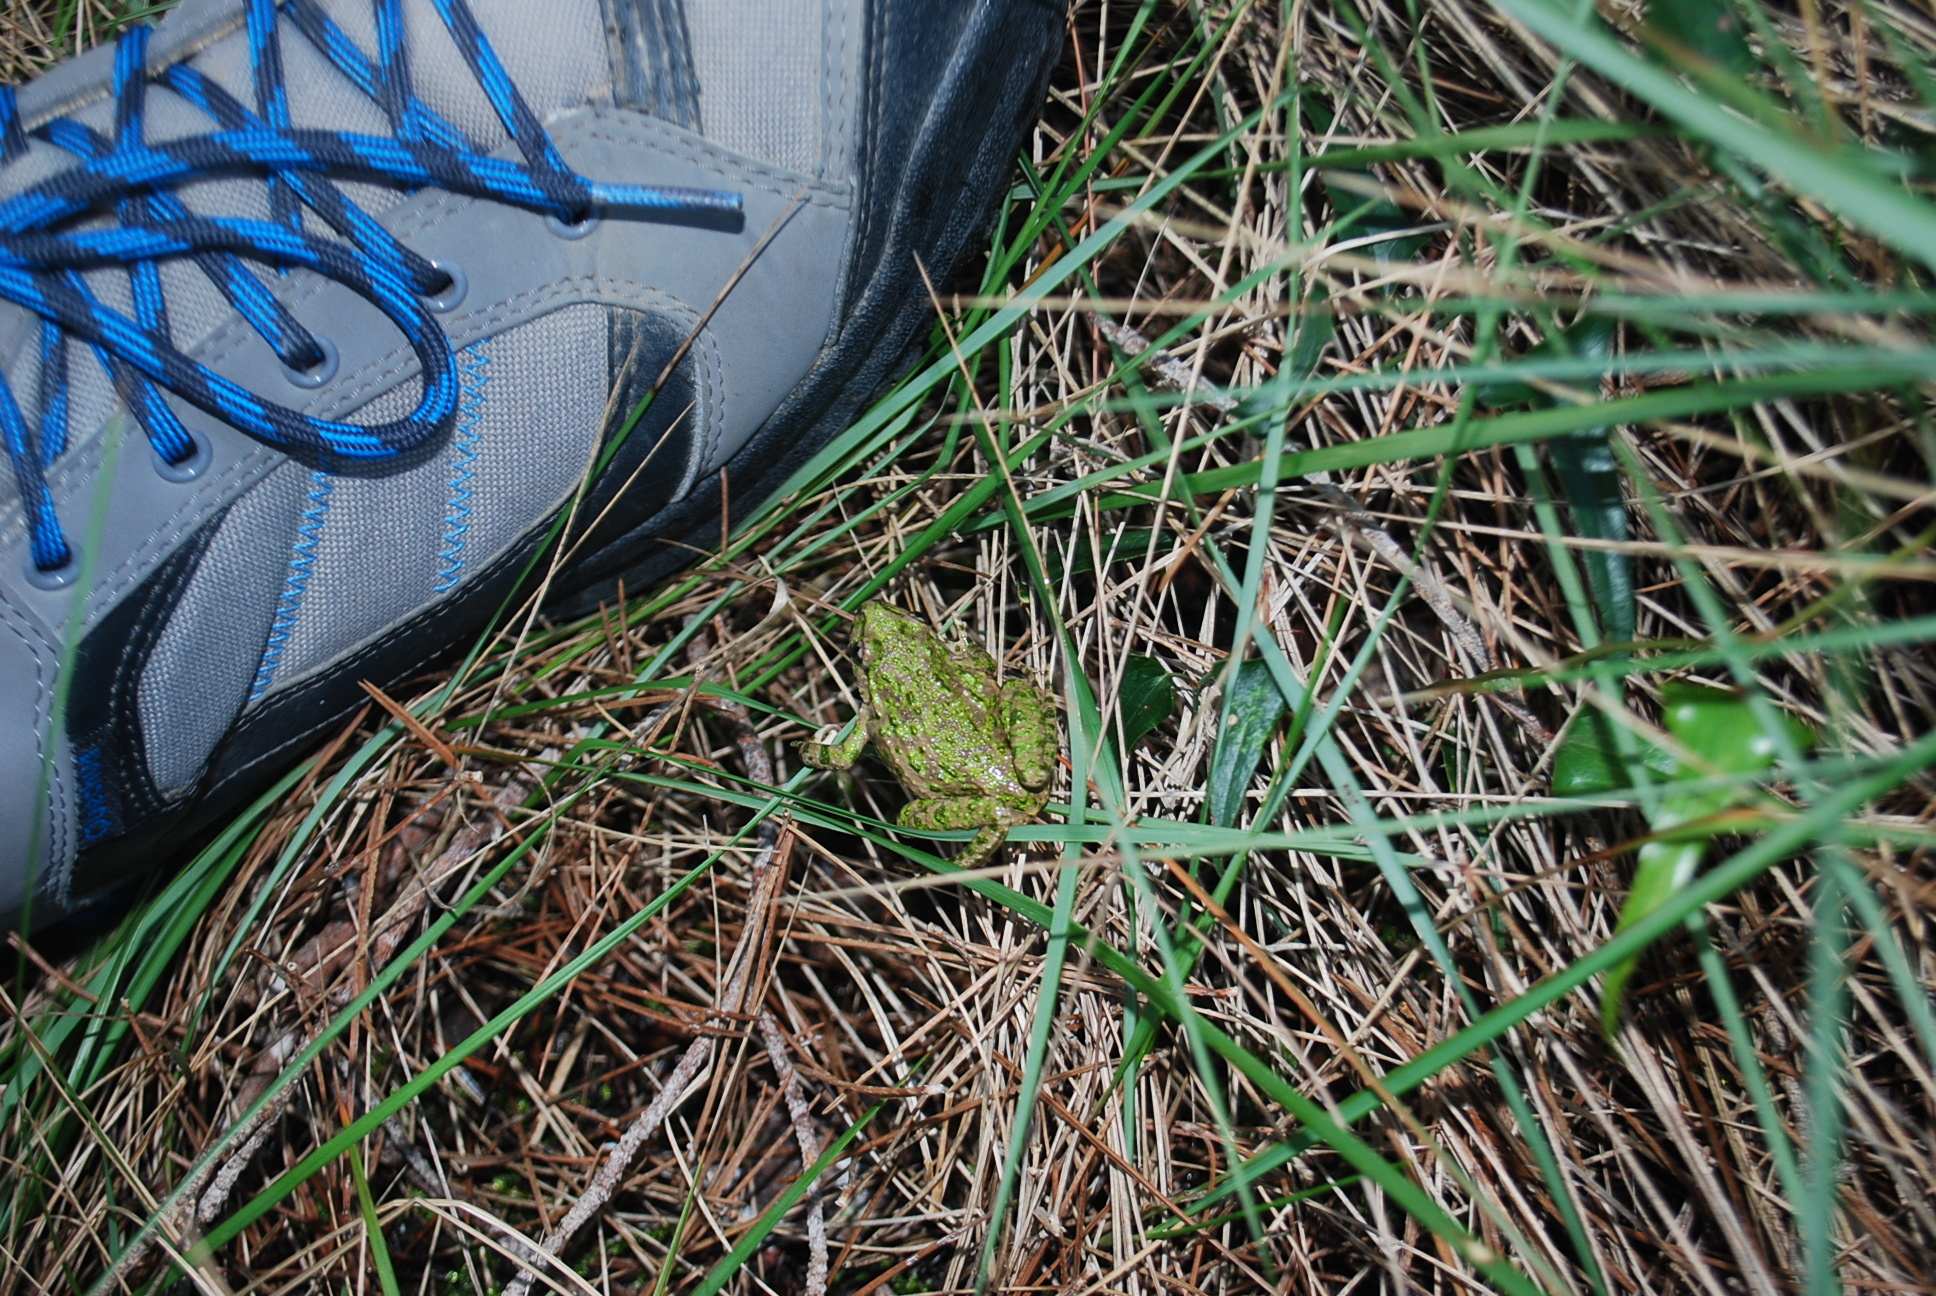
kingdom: Animalia
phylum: Chordata
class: Amphibia
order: Anura
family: Pelodytidae
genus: Pelodytes
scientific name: Pelodytes punctatus
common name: Parsley frog
